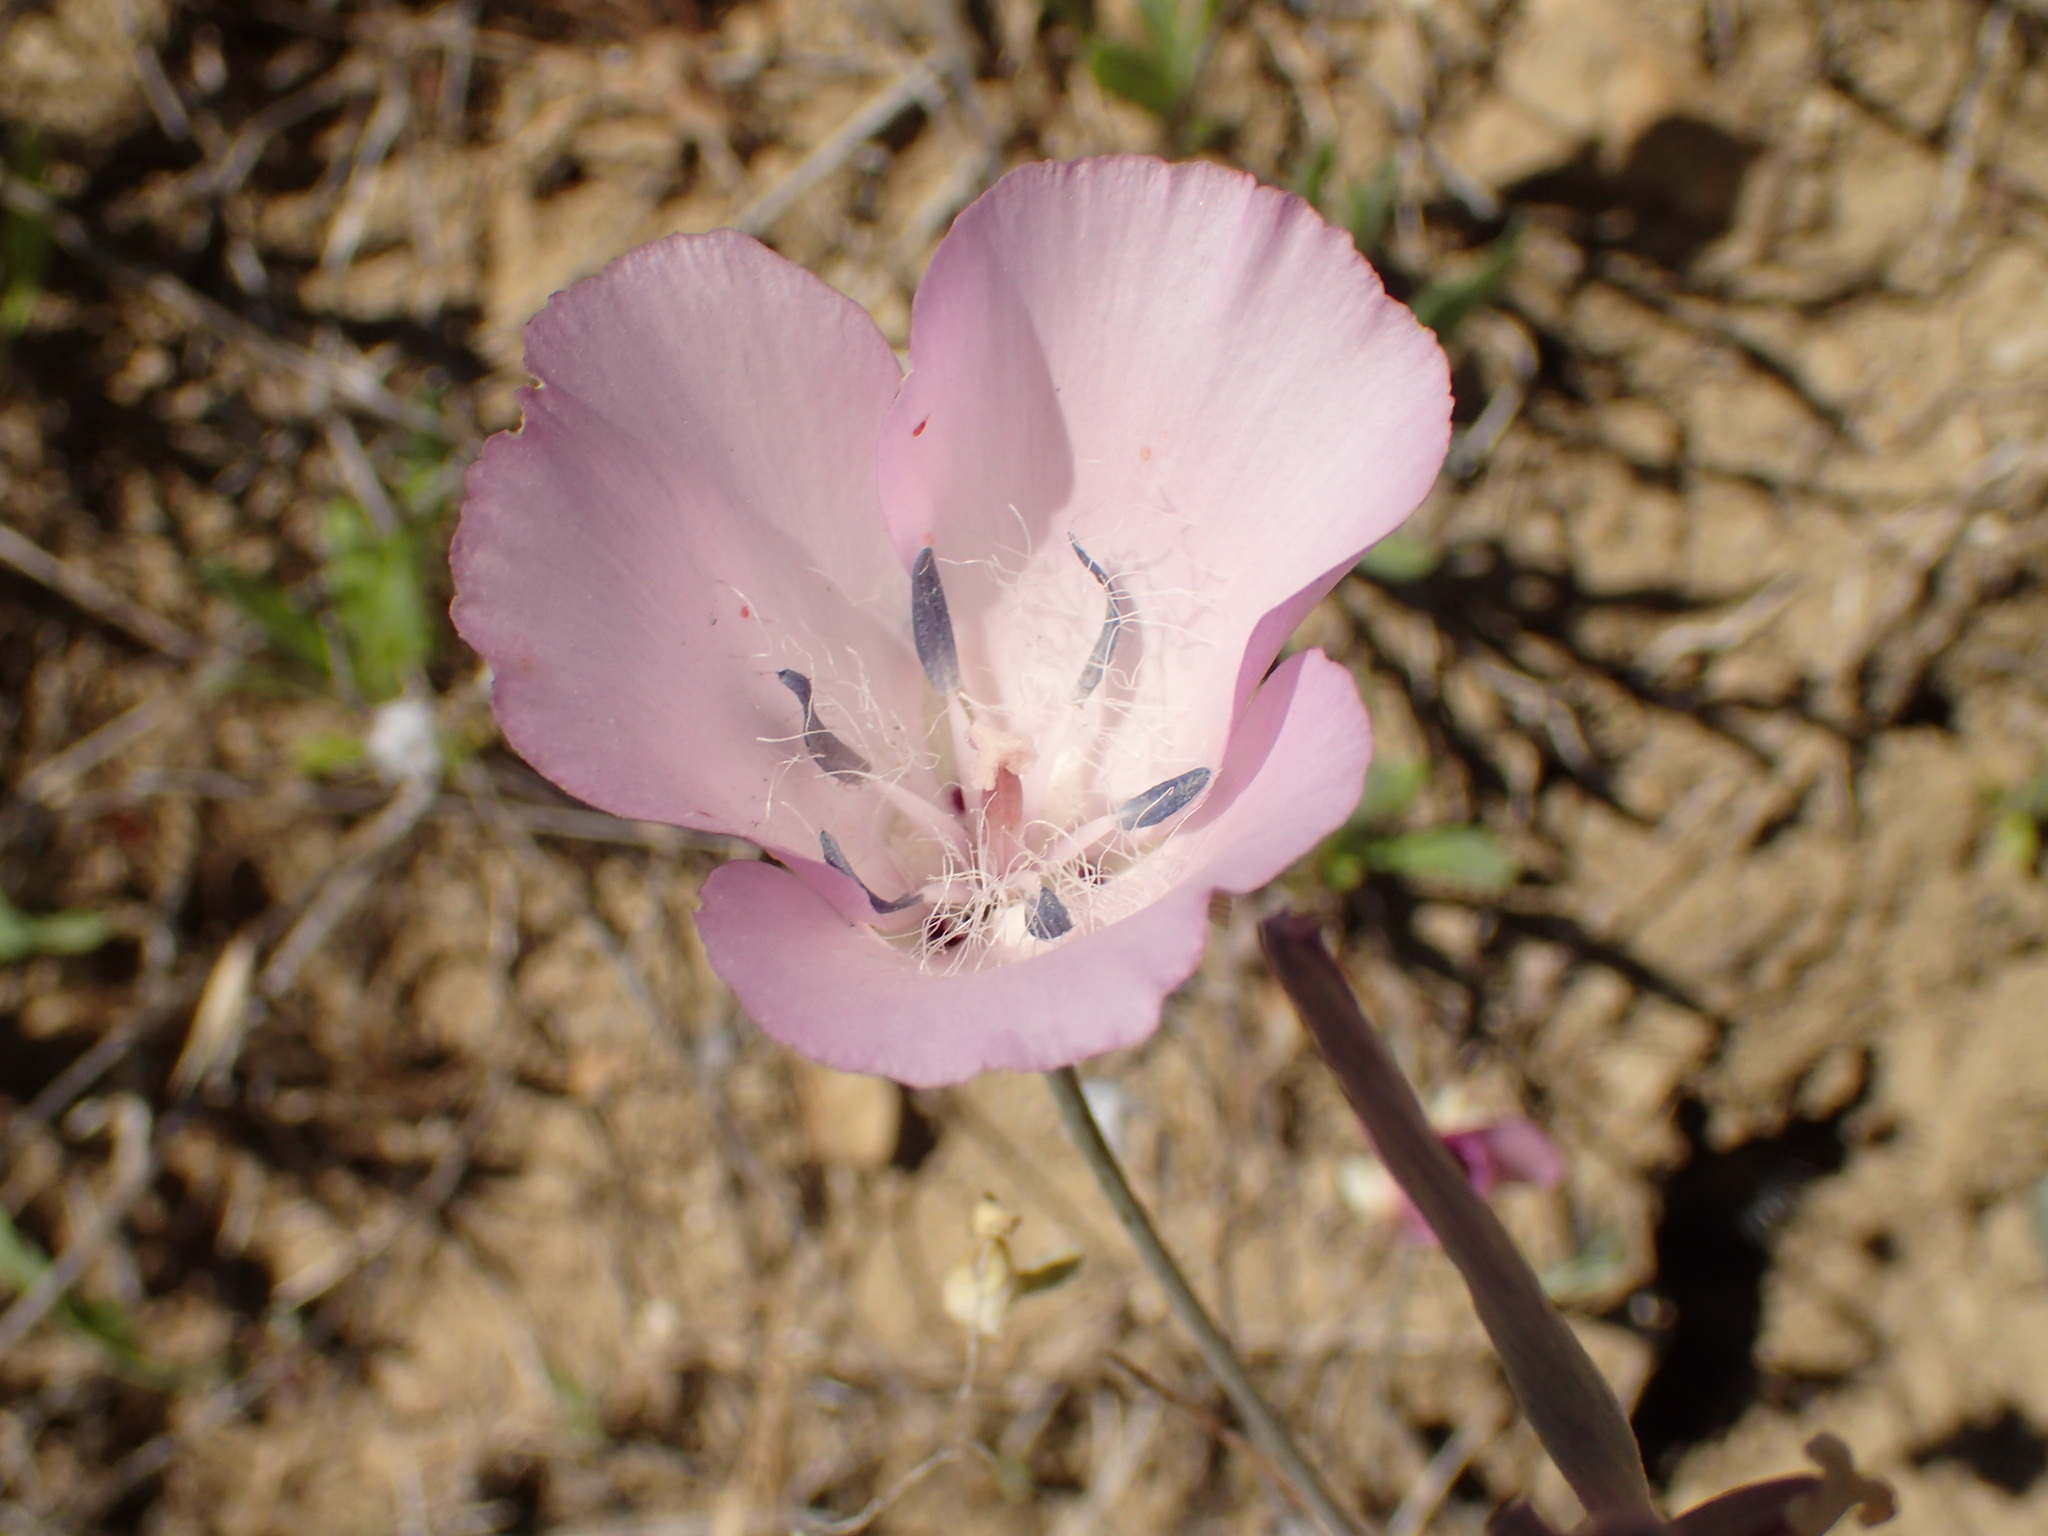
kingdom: Plantae
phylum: Tracheophyta
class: Liliopsida
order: Liliales
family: Liliaceae
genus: Calochortus
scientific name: Calochortus splendens
